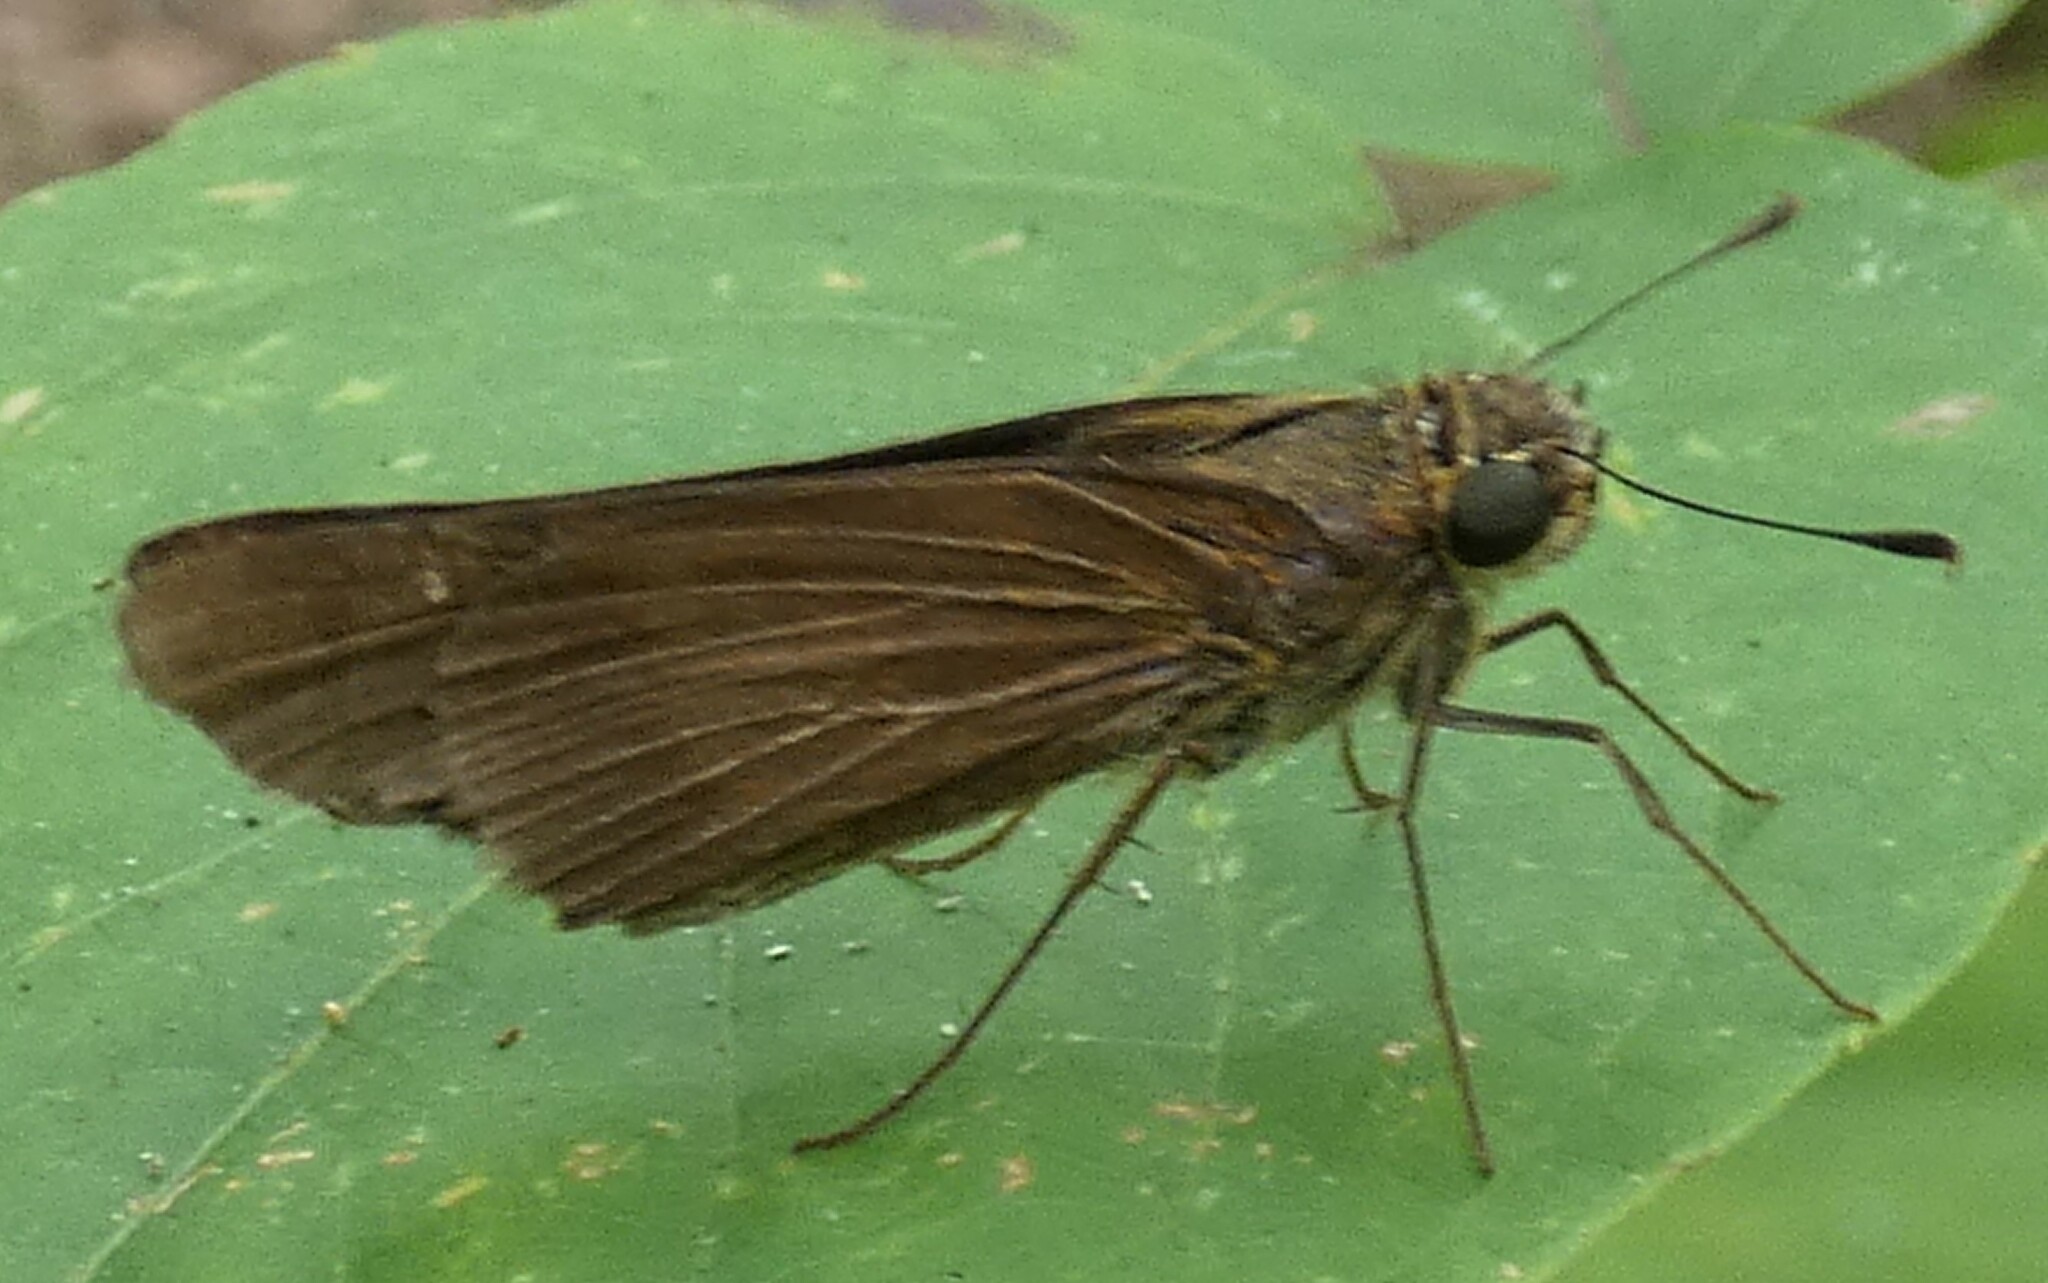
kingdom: Animalia
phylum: Arthropoda
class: Insecta
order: Lepidoptera
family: Hesperiidae
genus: Panoquina
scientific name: Panoquina ocola
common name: Ocola skipper
